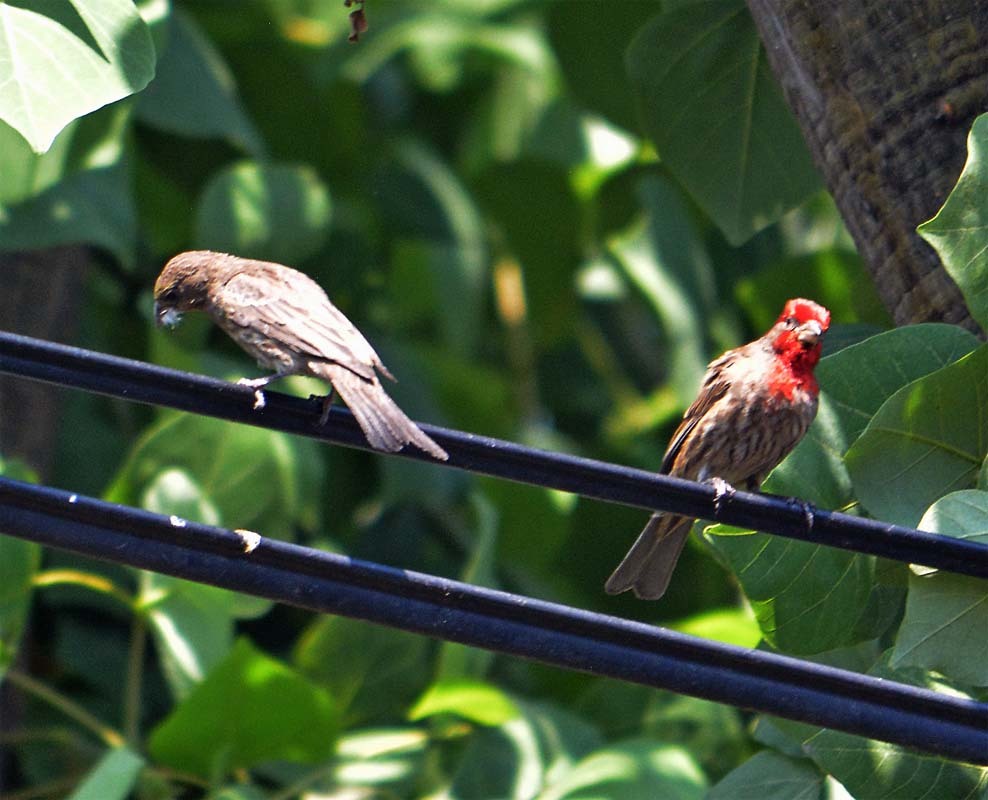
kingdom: Animalia
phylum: Chordata
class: Aves
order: Passeriformes
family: Fringillidae
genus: Haemorhous
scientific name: Haemorhous mexicanus
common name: House finch
